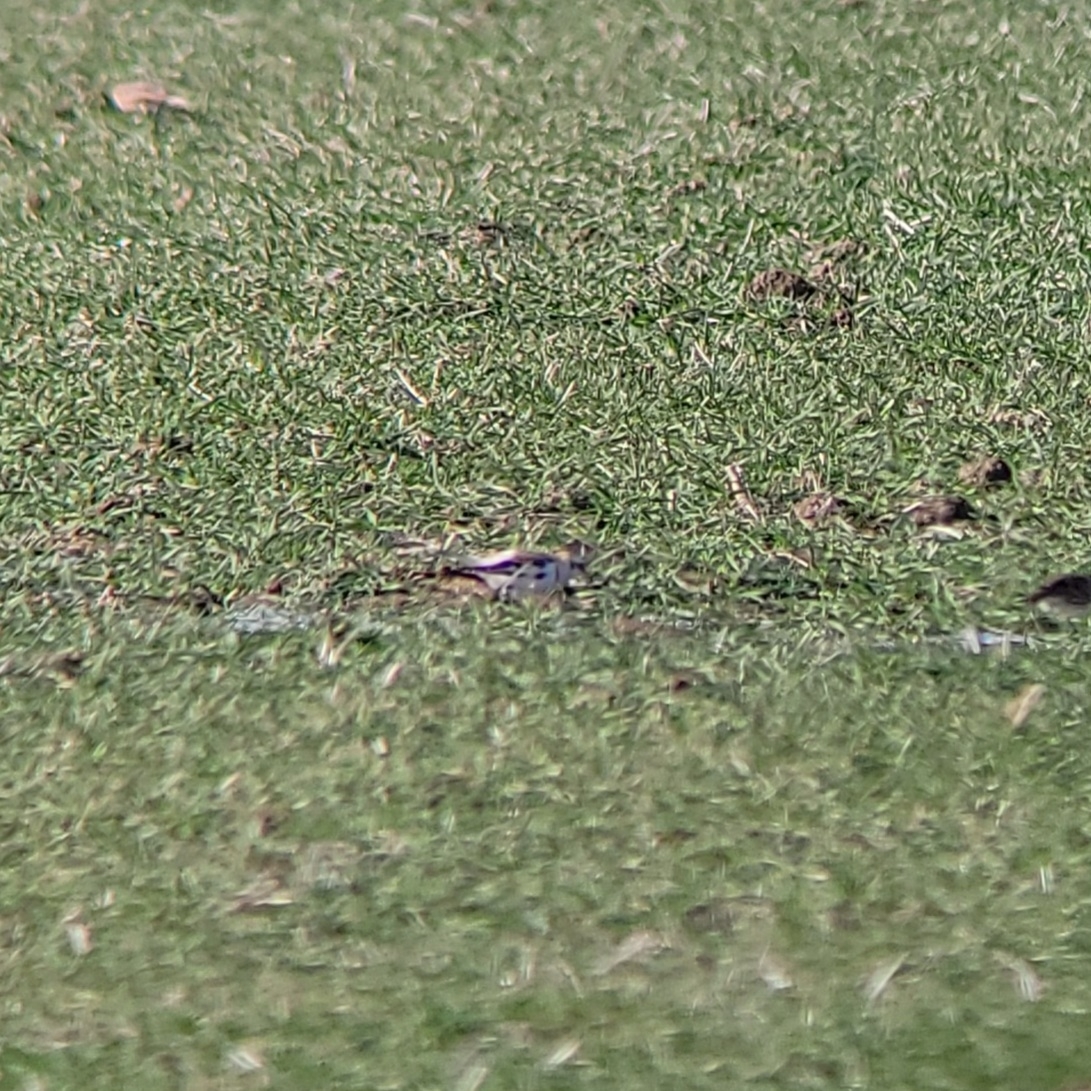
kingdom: Animalia
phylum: Chordata
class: Aves
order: Passeriformes
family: Calcariidae
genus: Plectrophenax
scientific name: Plectrophenax nivalis
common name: Snow bunting
